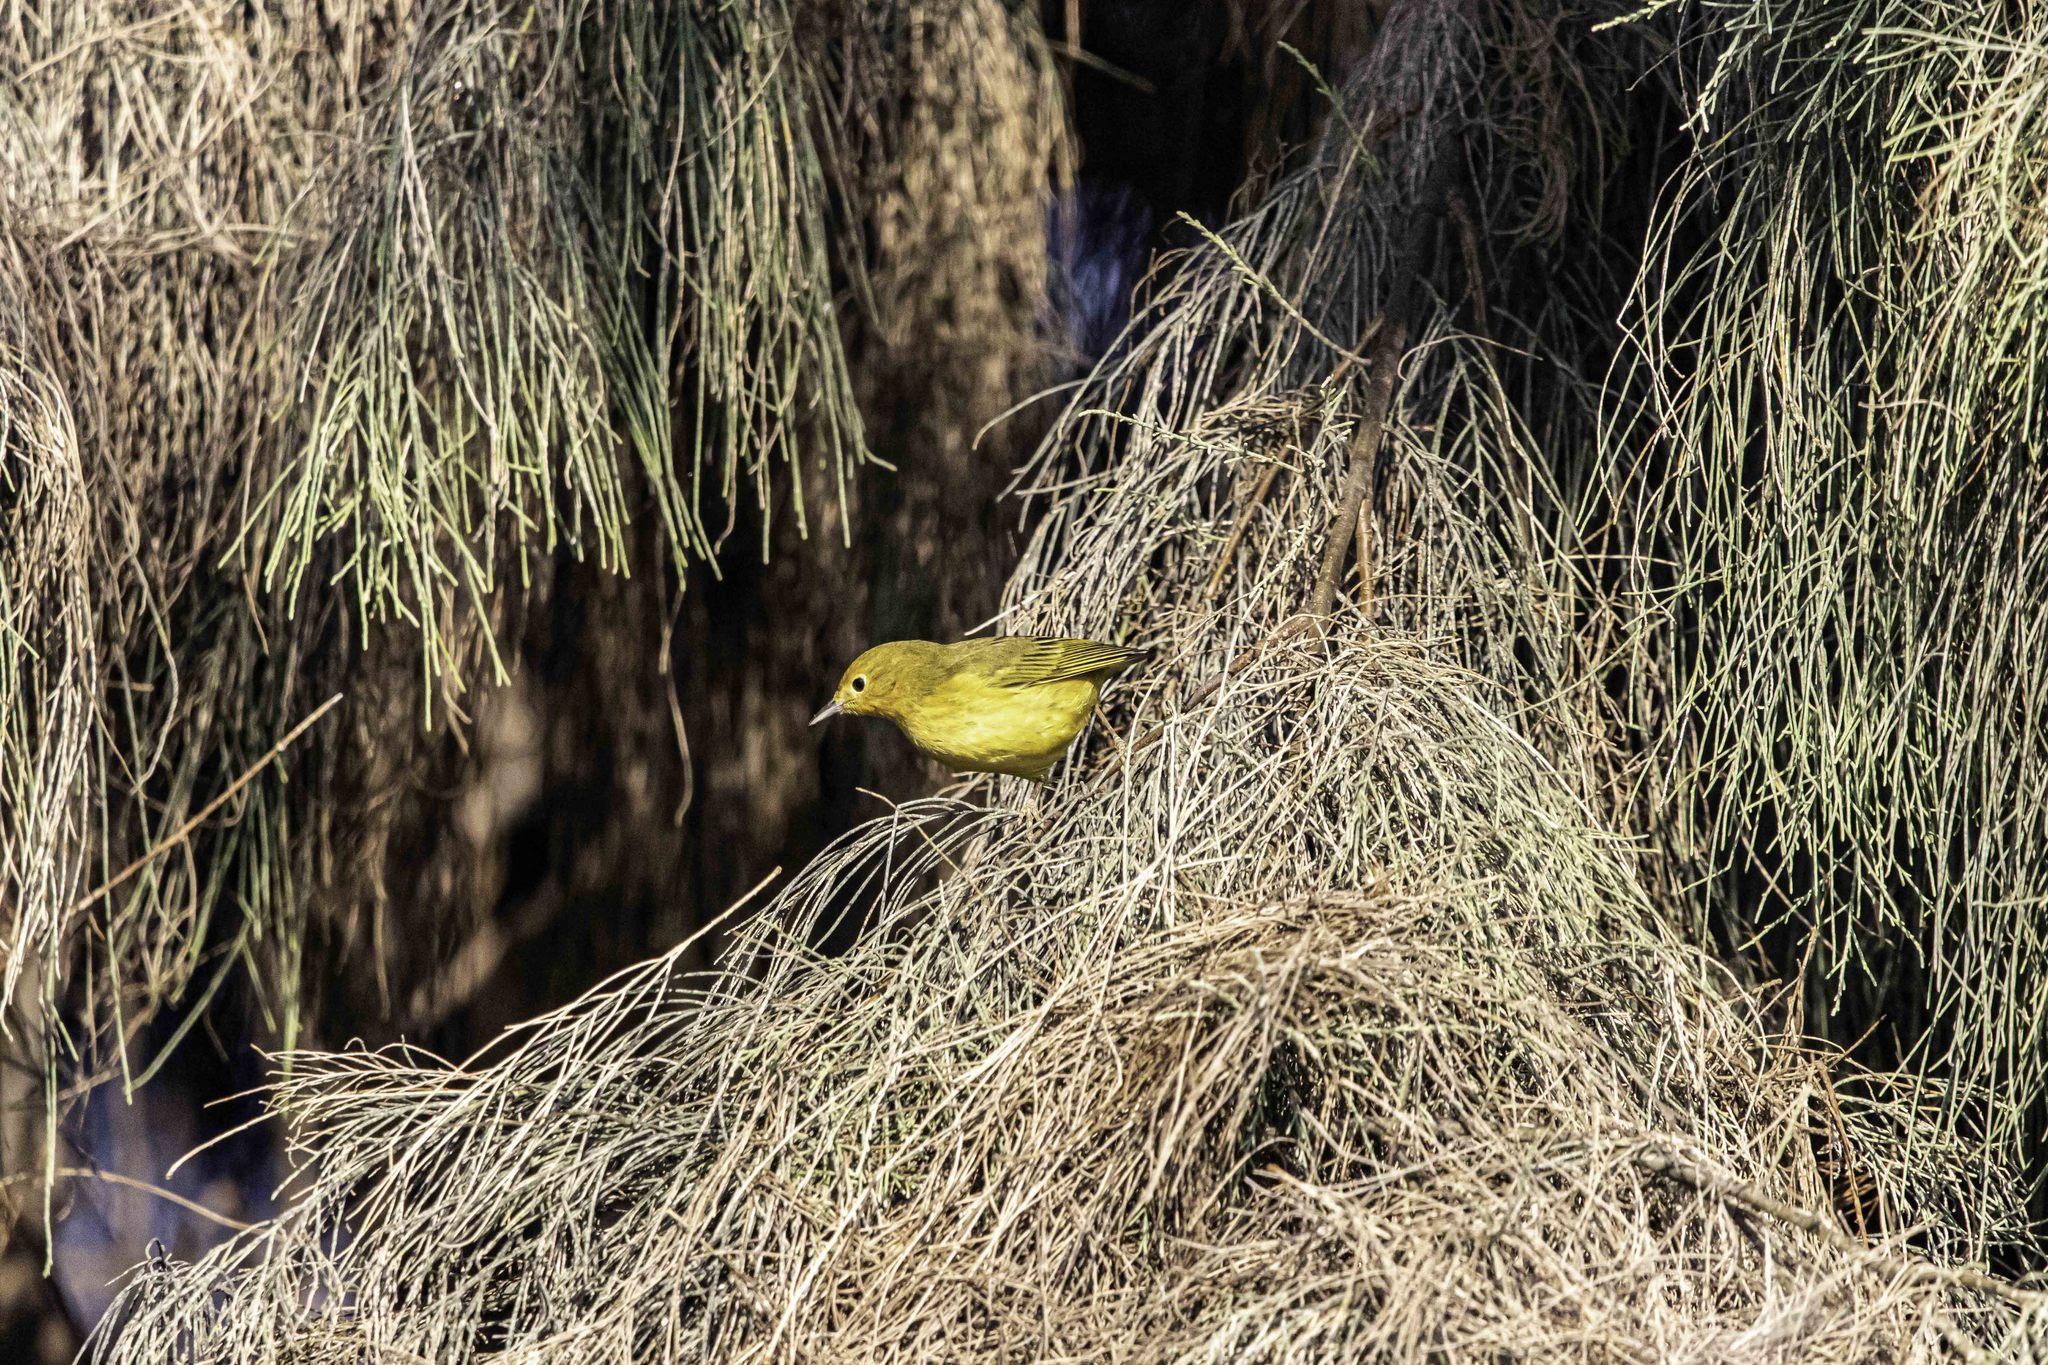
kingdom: Animalia
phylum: Chordata
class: Aves
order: Passeriformes
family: Parulidae
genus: Setophaga
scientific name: Setophaga petechia
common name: Yellow warbler
